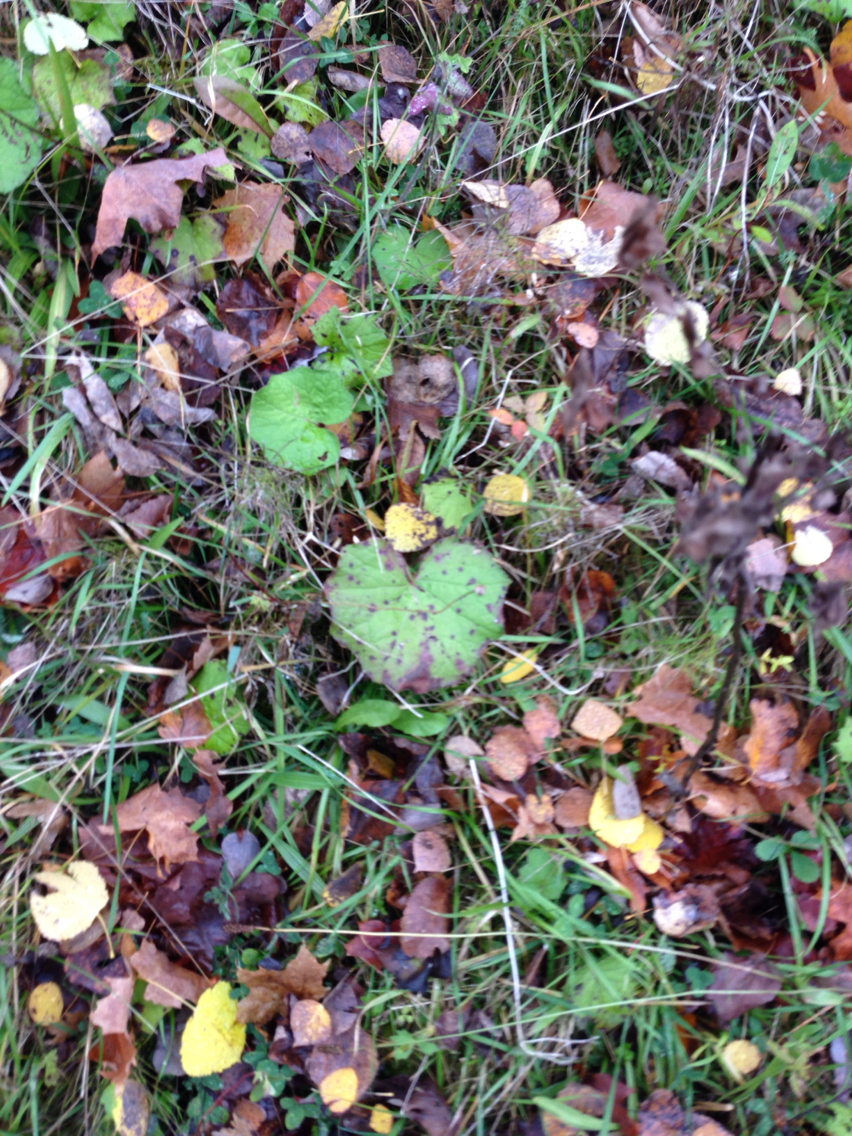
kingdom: Plantae
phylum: Tracheophyta
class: Magnoliopsida
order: Asterales
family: Asteraceae
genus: Tussilago
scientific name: Tussilago farfara
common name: Coltsfoot
